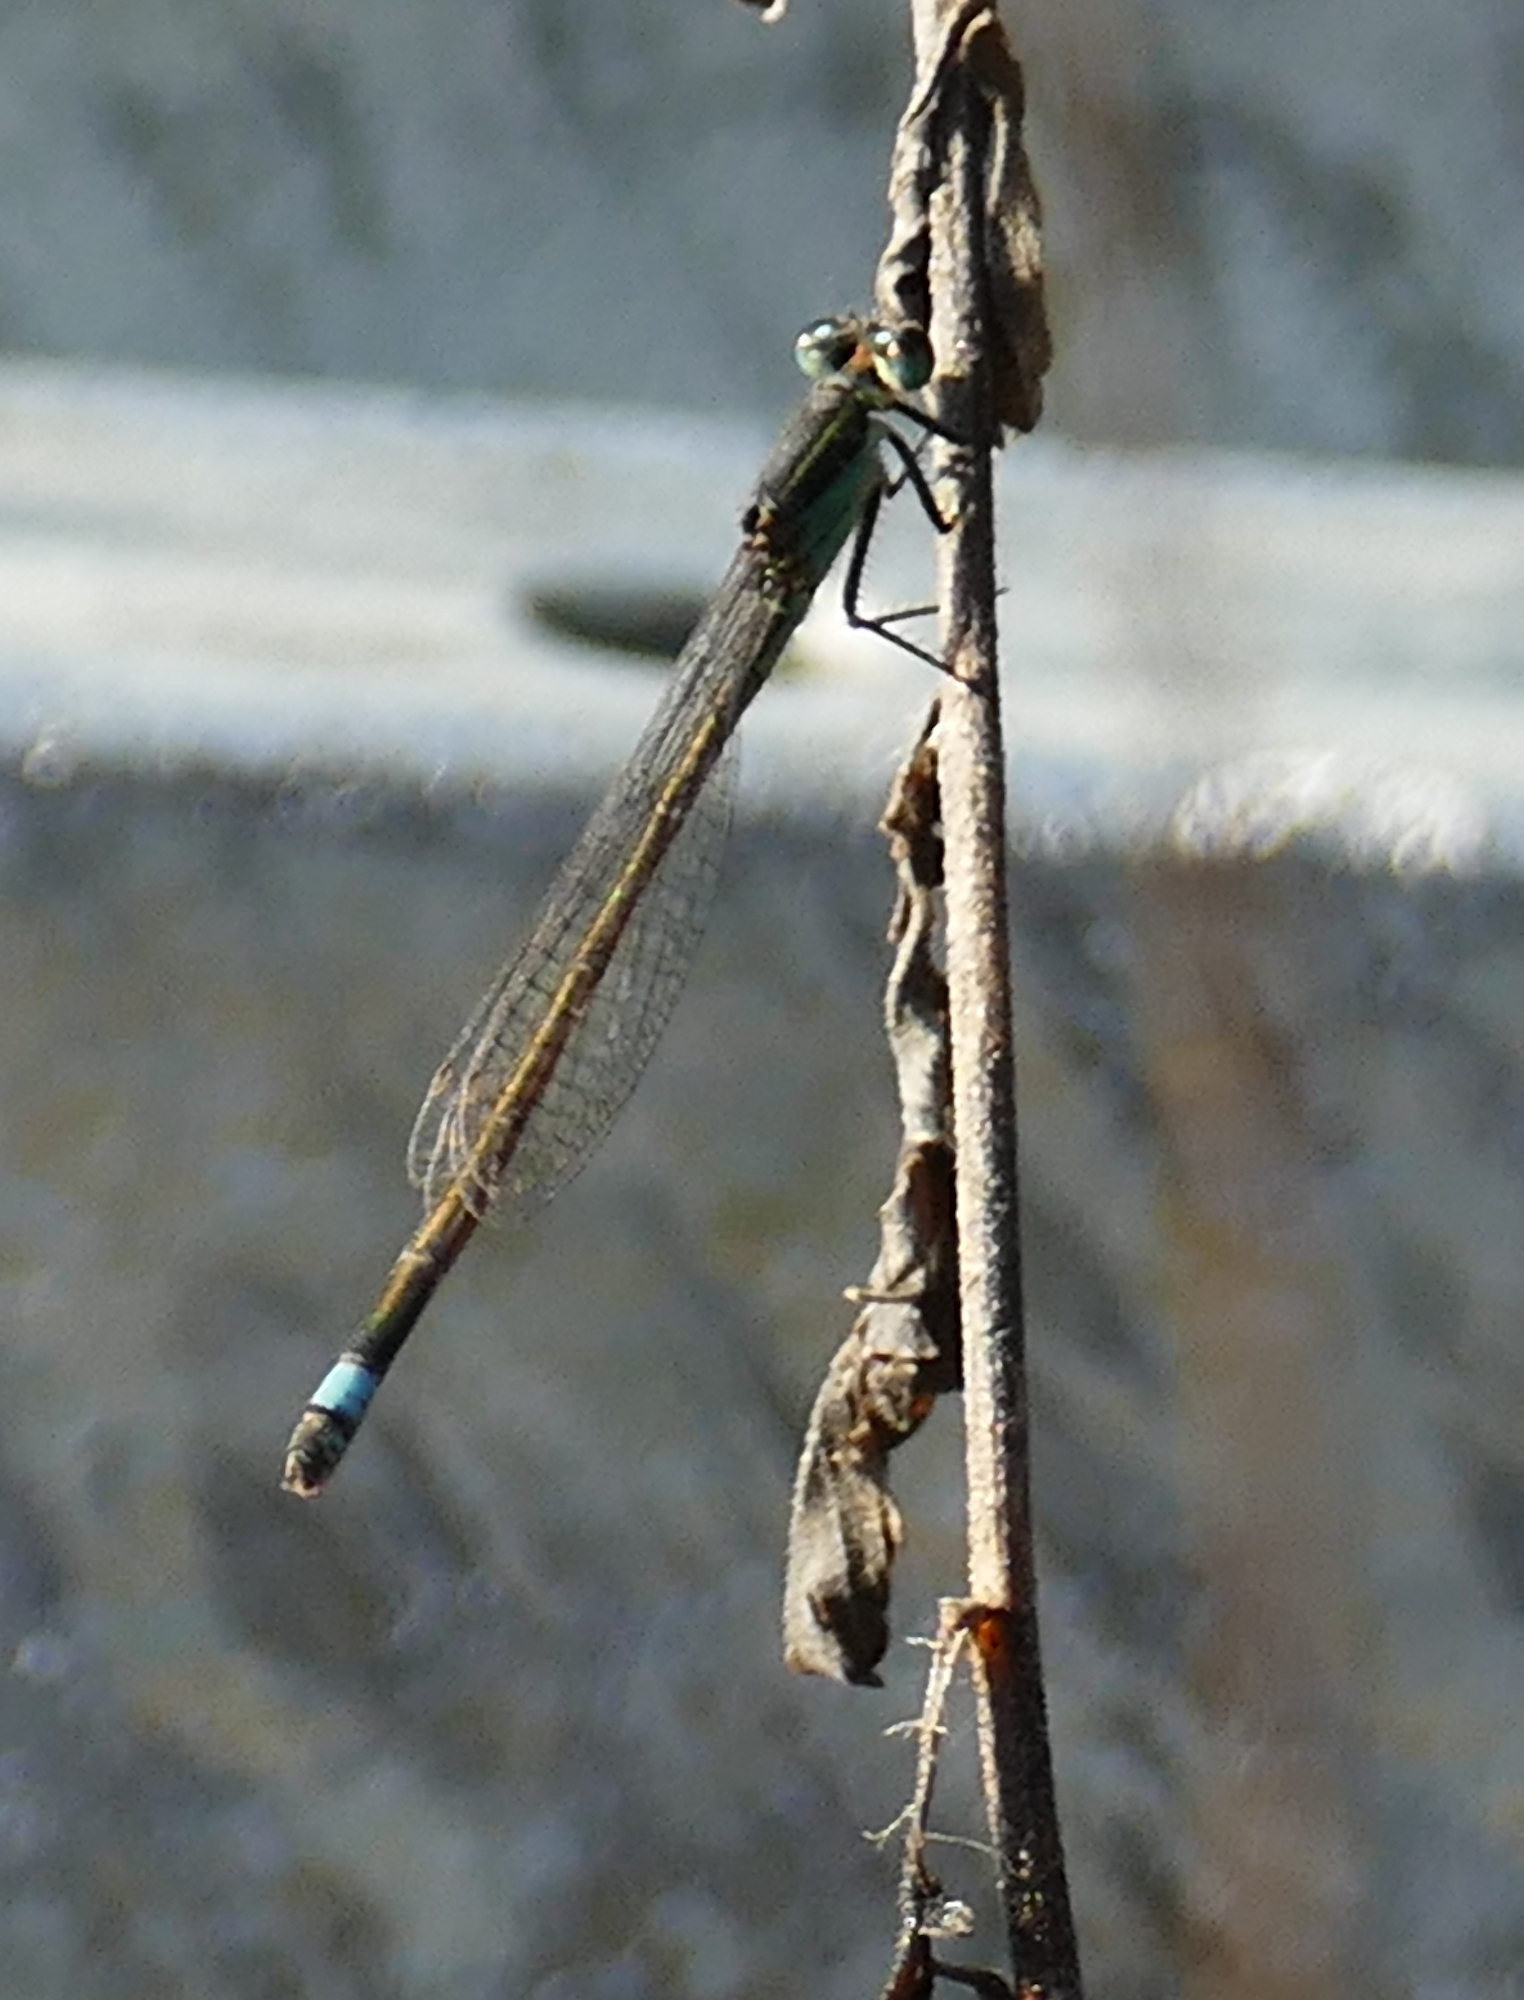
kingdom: Animalia
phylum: Arthropoda
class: Insecta
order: Odonata
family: Coenagrionidae
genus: Ischnura
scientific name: Ischnura ramburii
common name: Rambur's forktail
